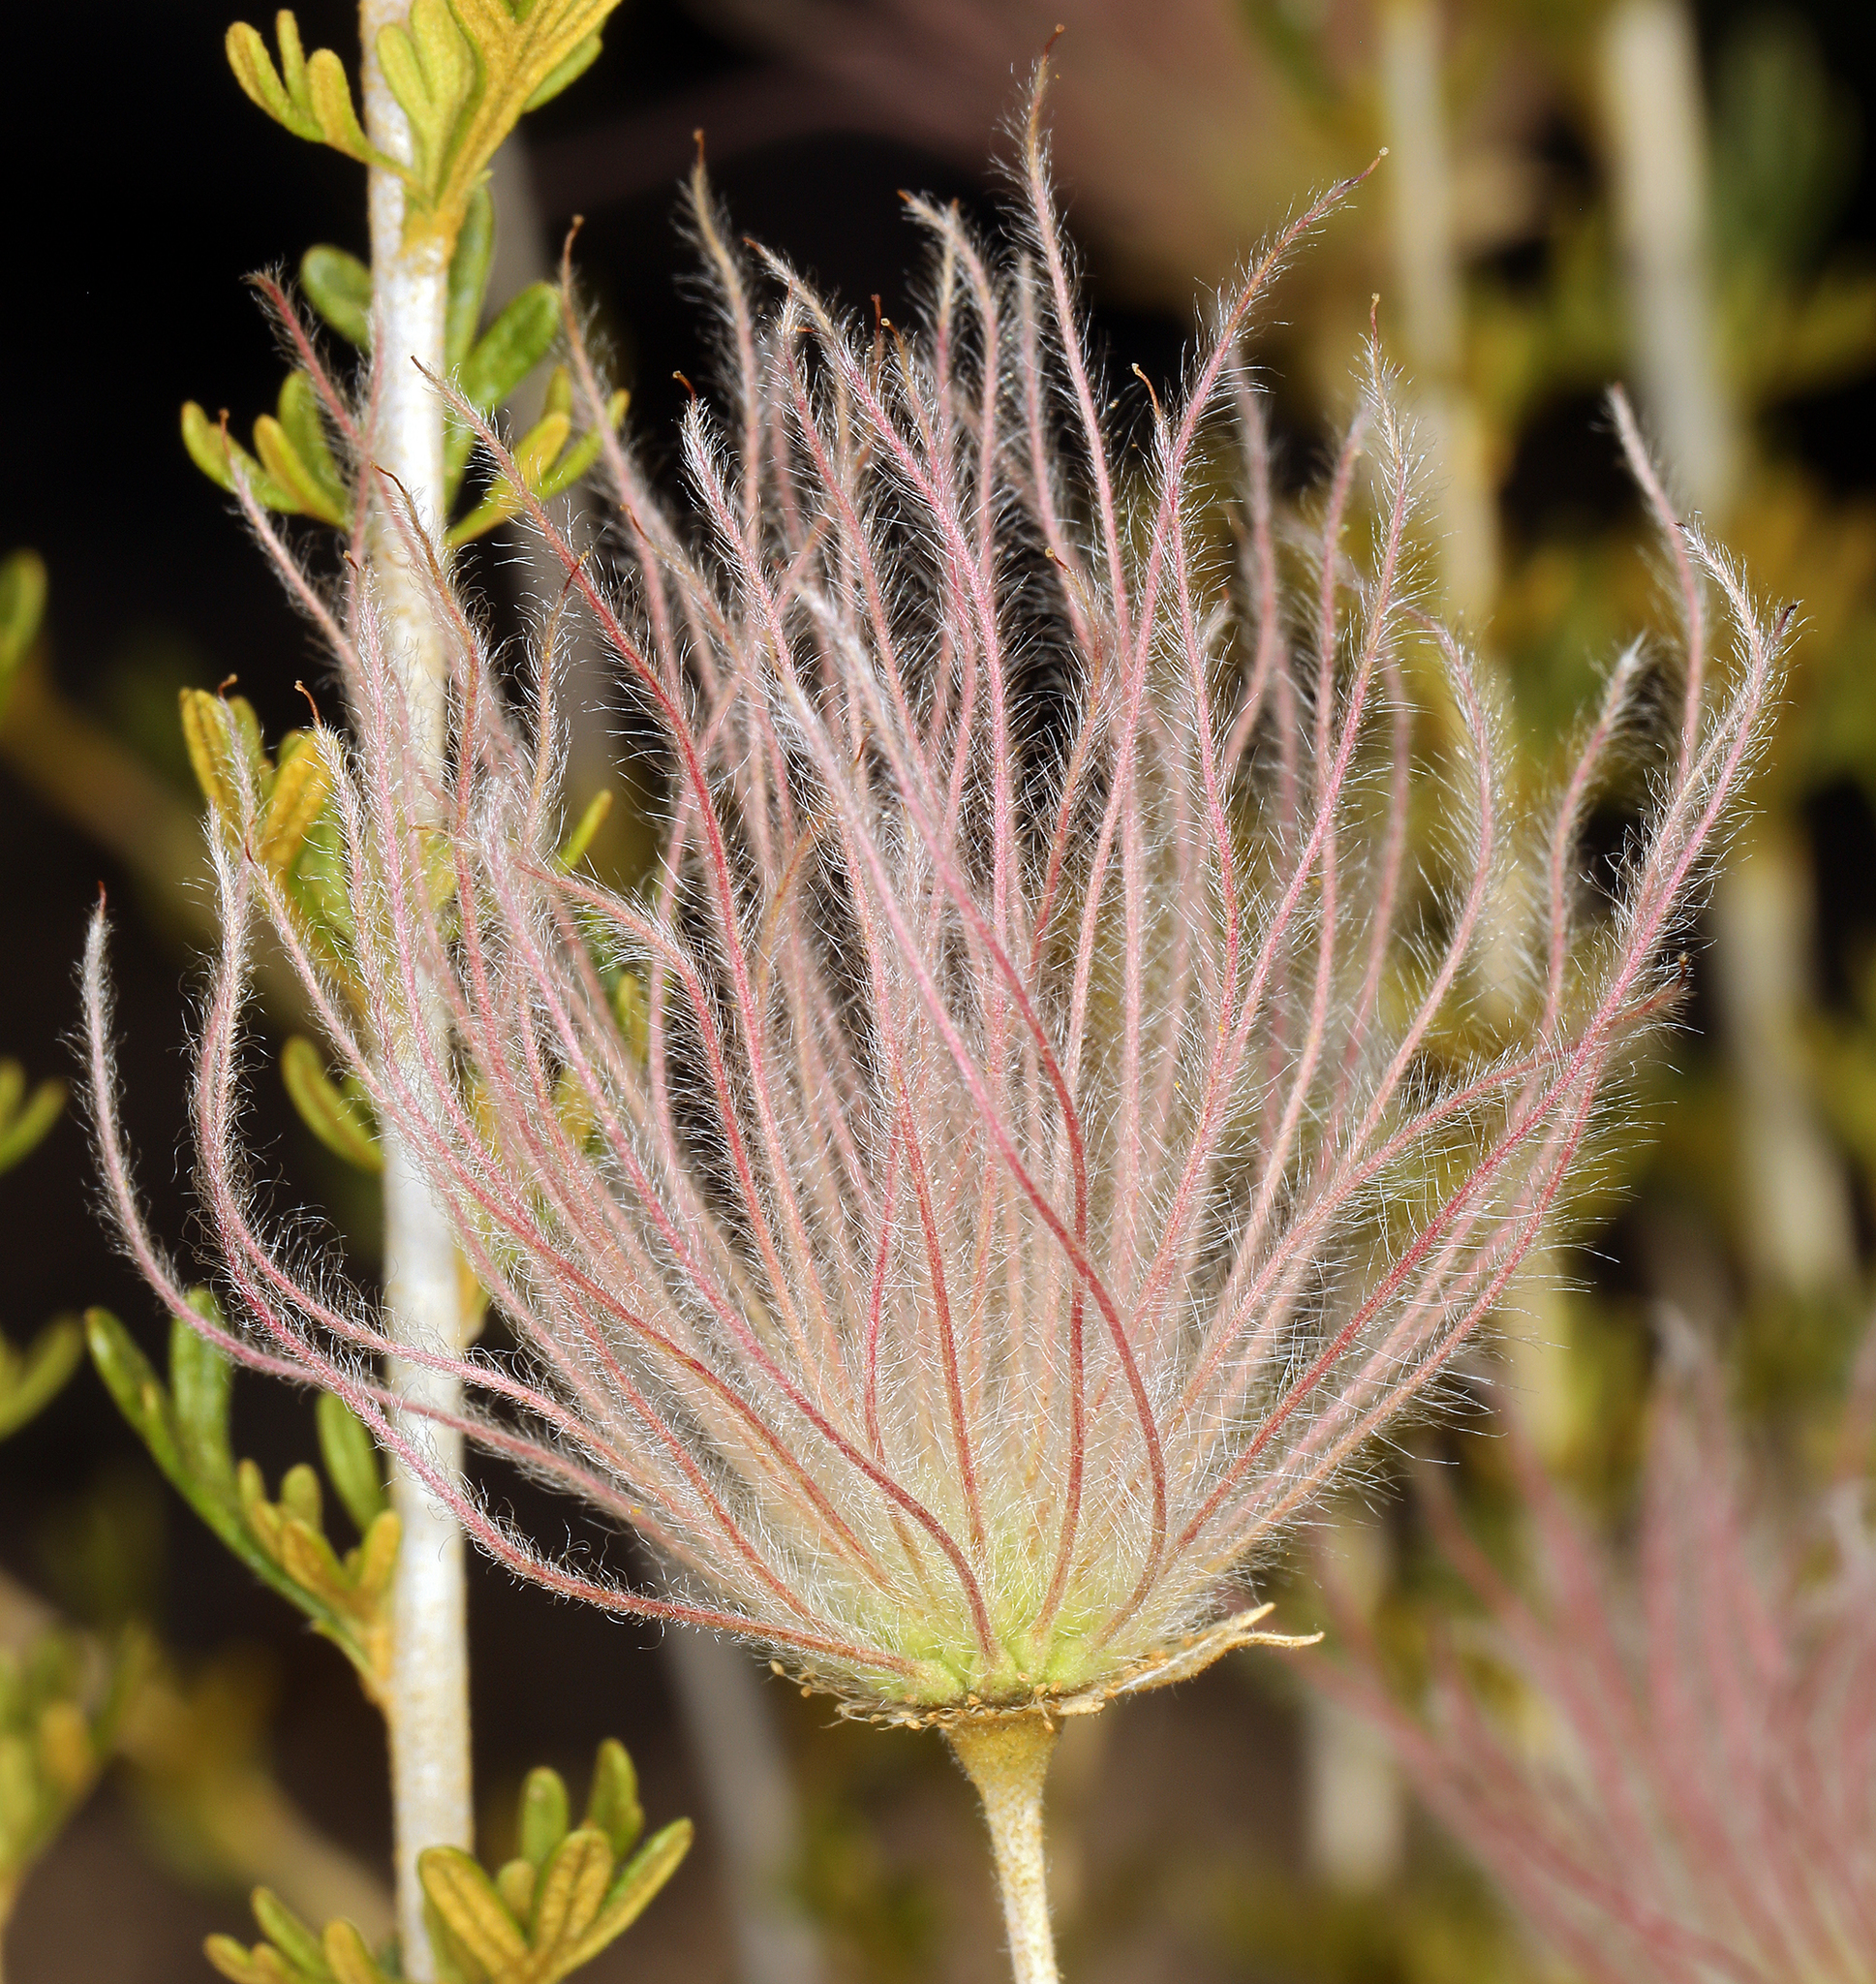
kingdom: Plantae
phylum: Tracheophyta
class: Magnoliopsida
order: Rosales
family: Rosaceae
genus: Fallugia
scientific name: Fallugia paradoxa
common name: Apache-plume
